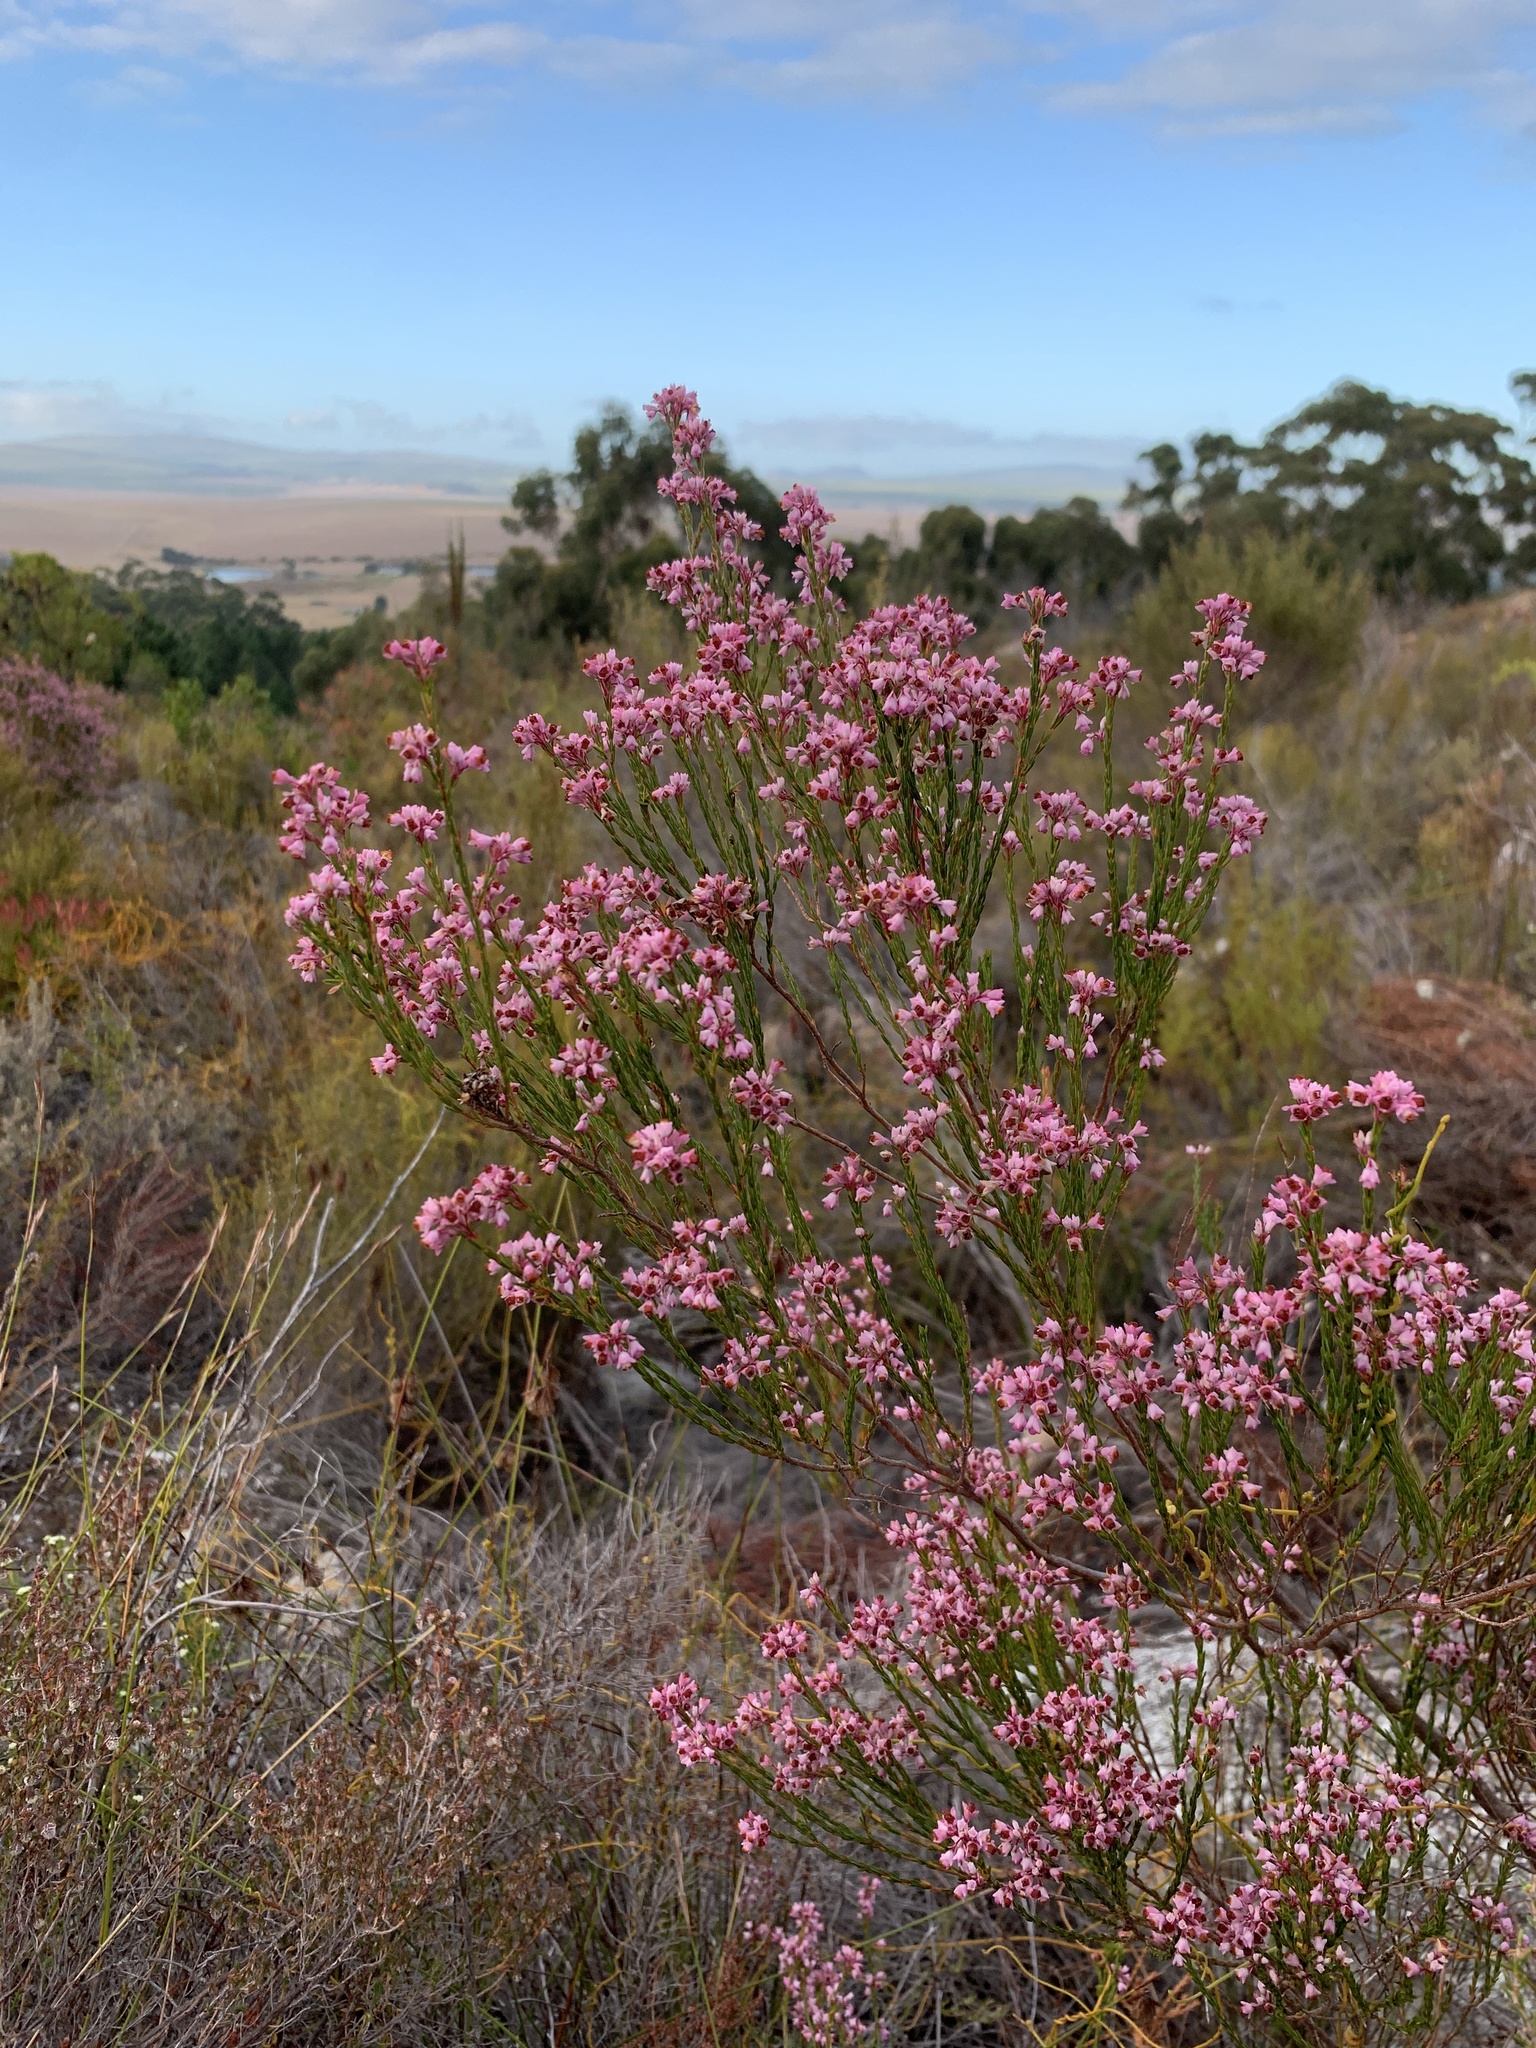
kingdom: Plantae
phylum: Tracheophyta
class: Magnoliopsida
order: Ericales
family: Ericaceae
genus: Erica
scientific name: Erica corifolia
